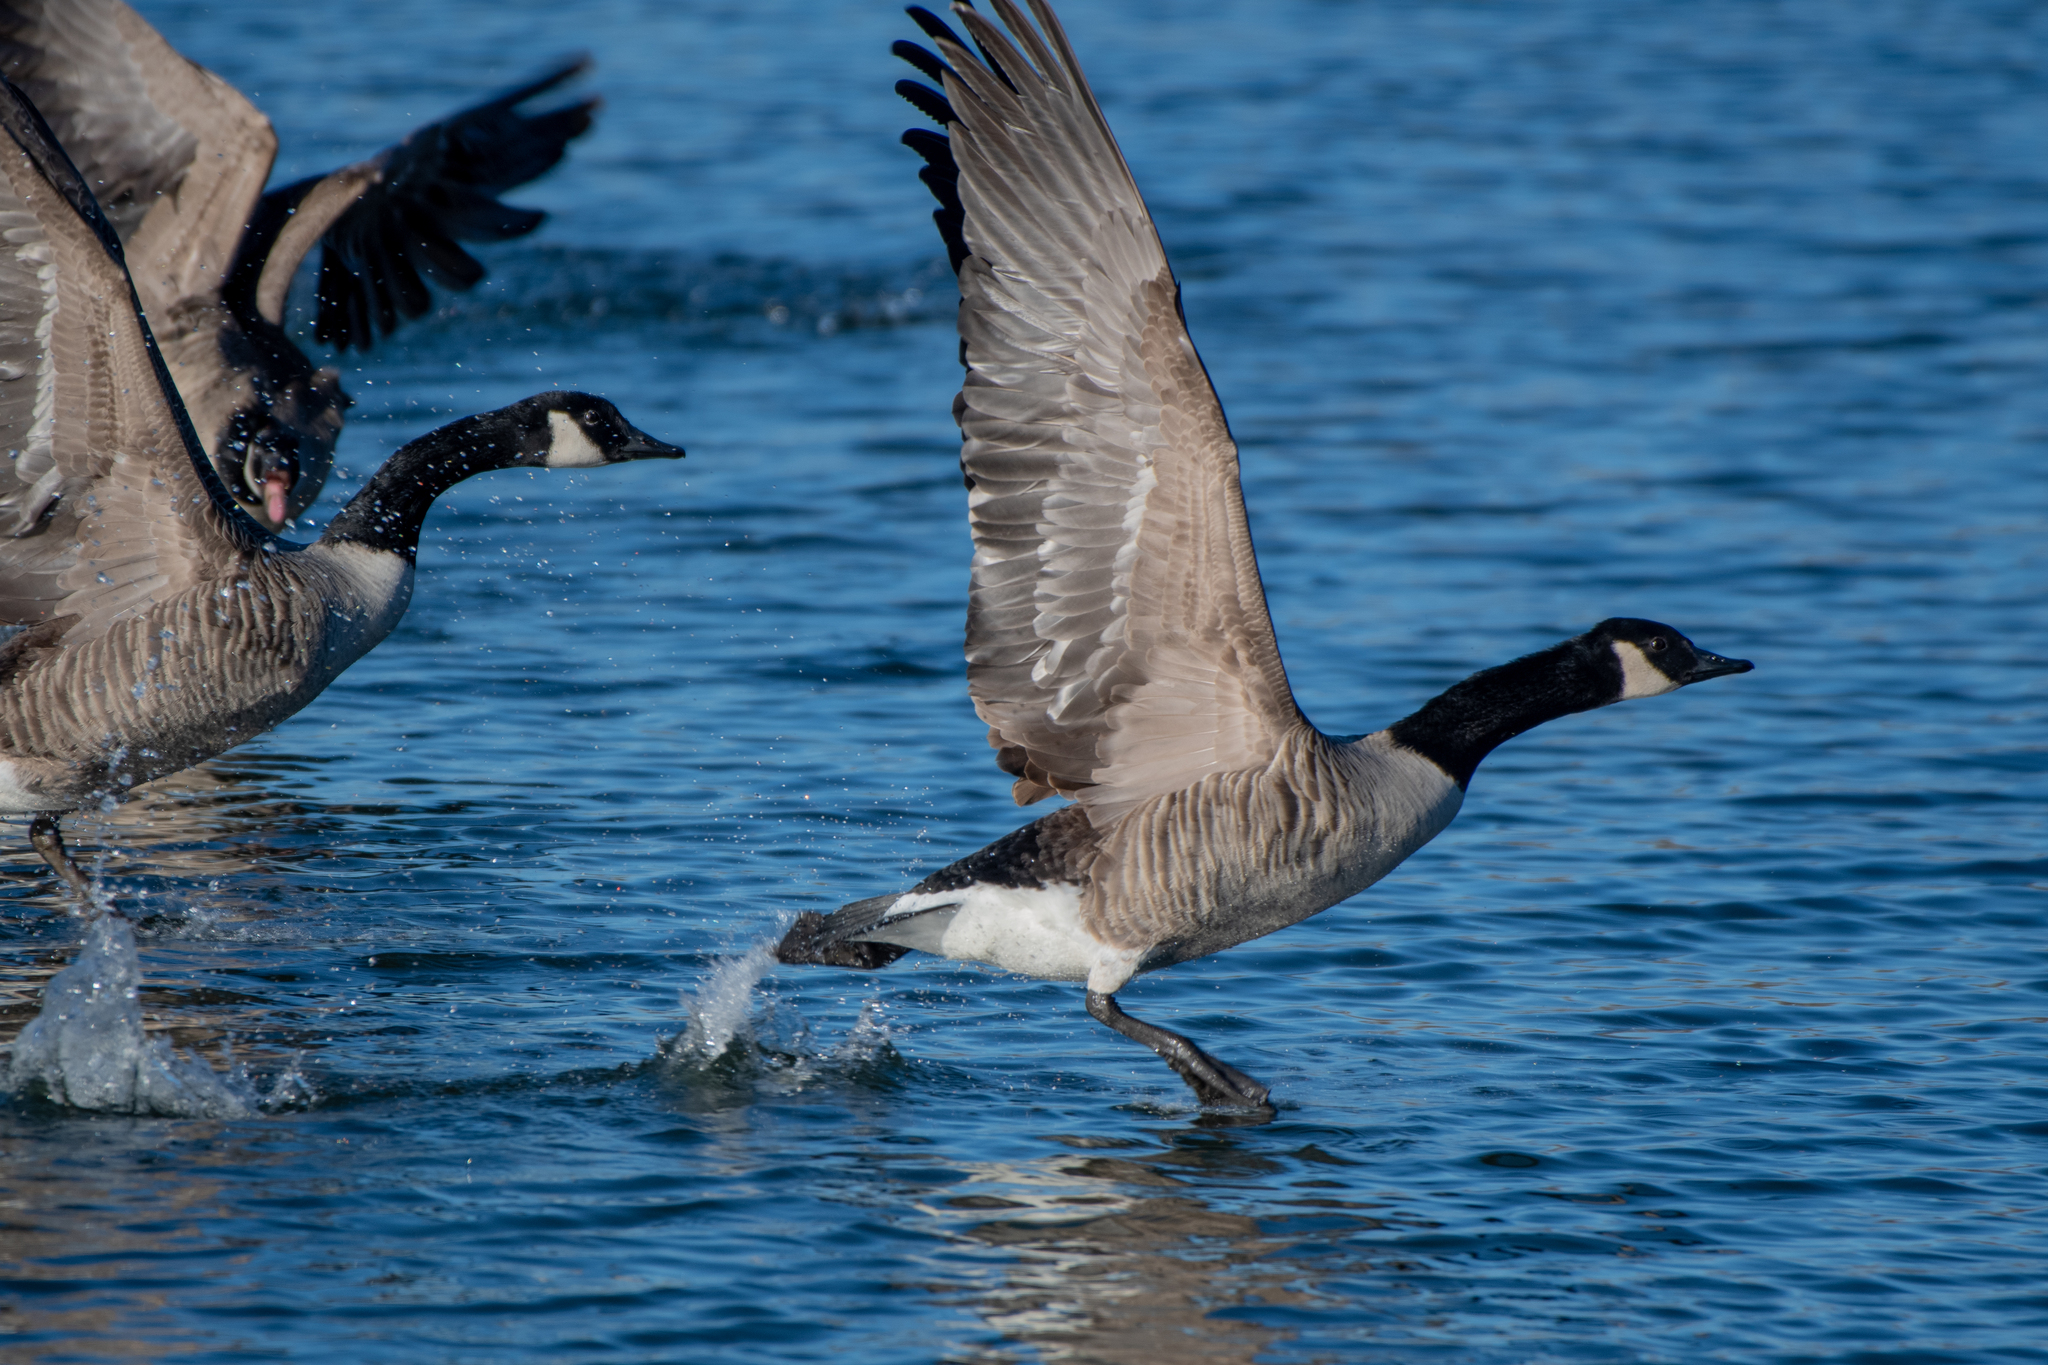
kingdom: Animalia
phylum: Chordata
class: Aves
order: Anseriformes
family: Anatidae
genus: Branta
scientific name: Branta canadensis
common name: Canada goose
